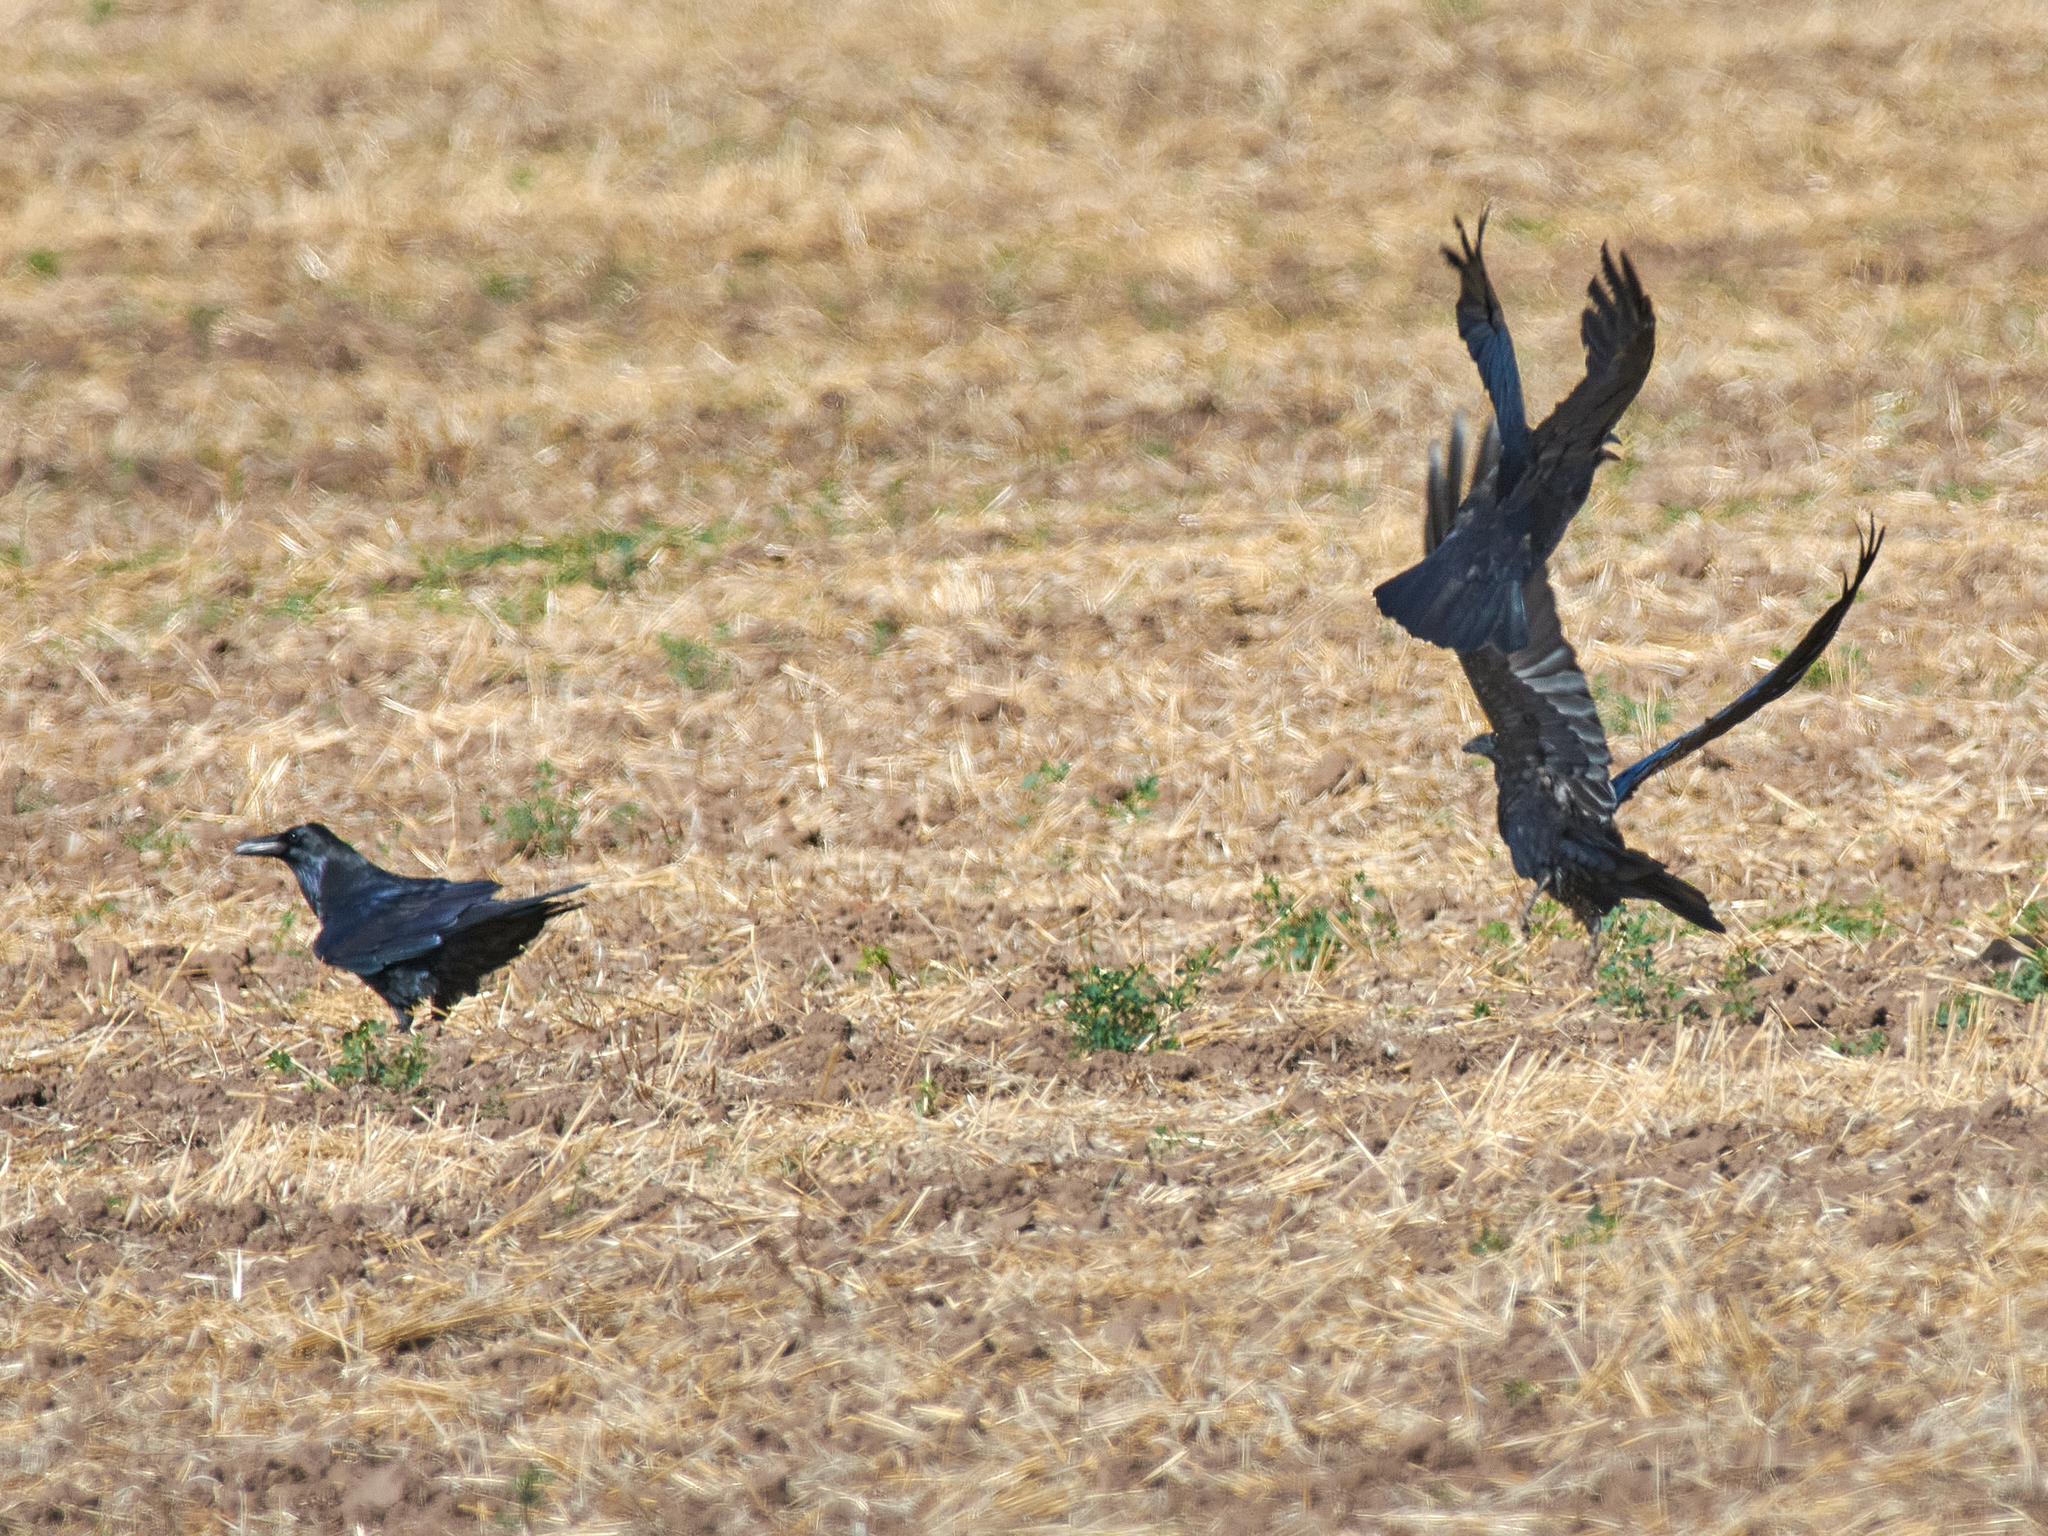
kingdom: Animalia
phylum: Chordata
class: Aves
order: Passeriformes
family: Corvidae
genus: Corvus
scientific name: Corvus corax
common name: Common raven
